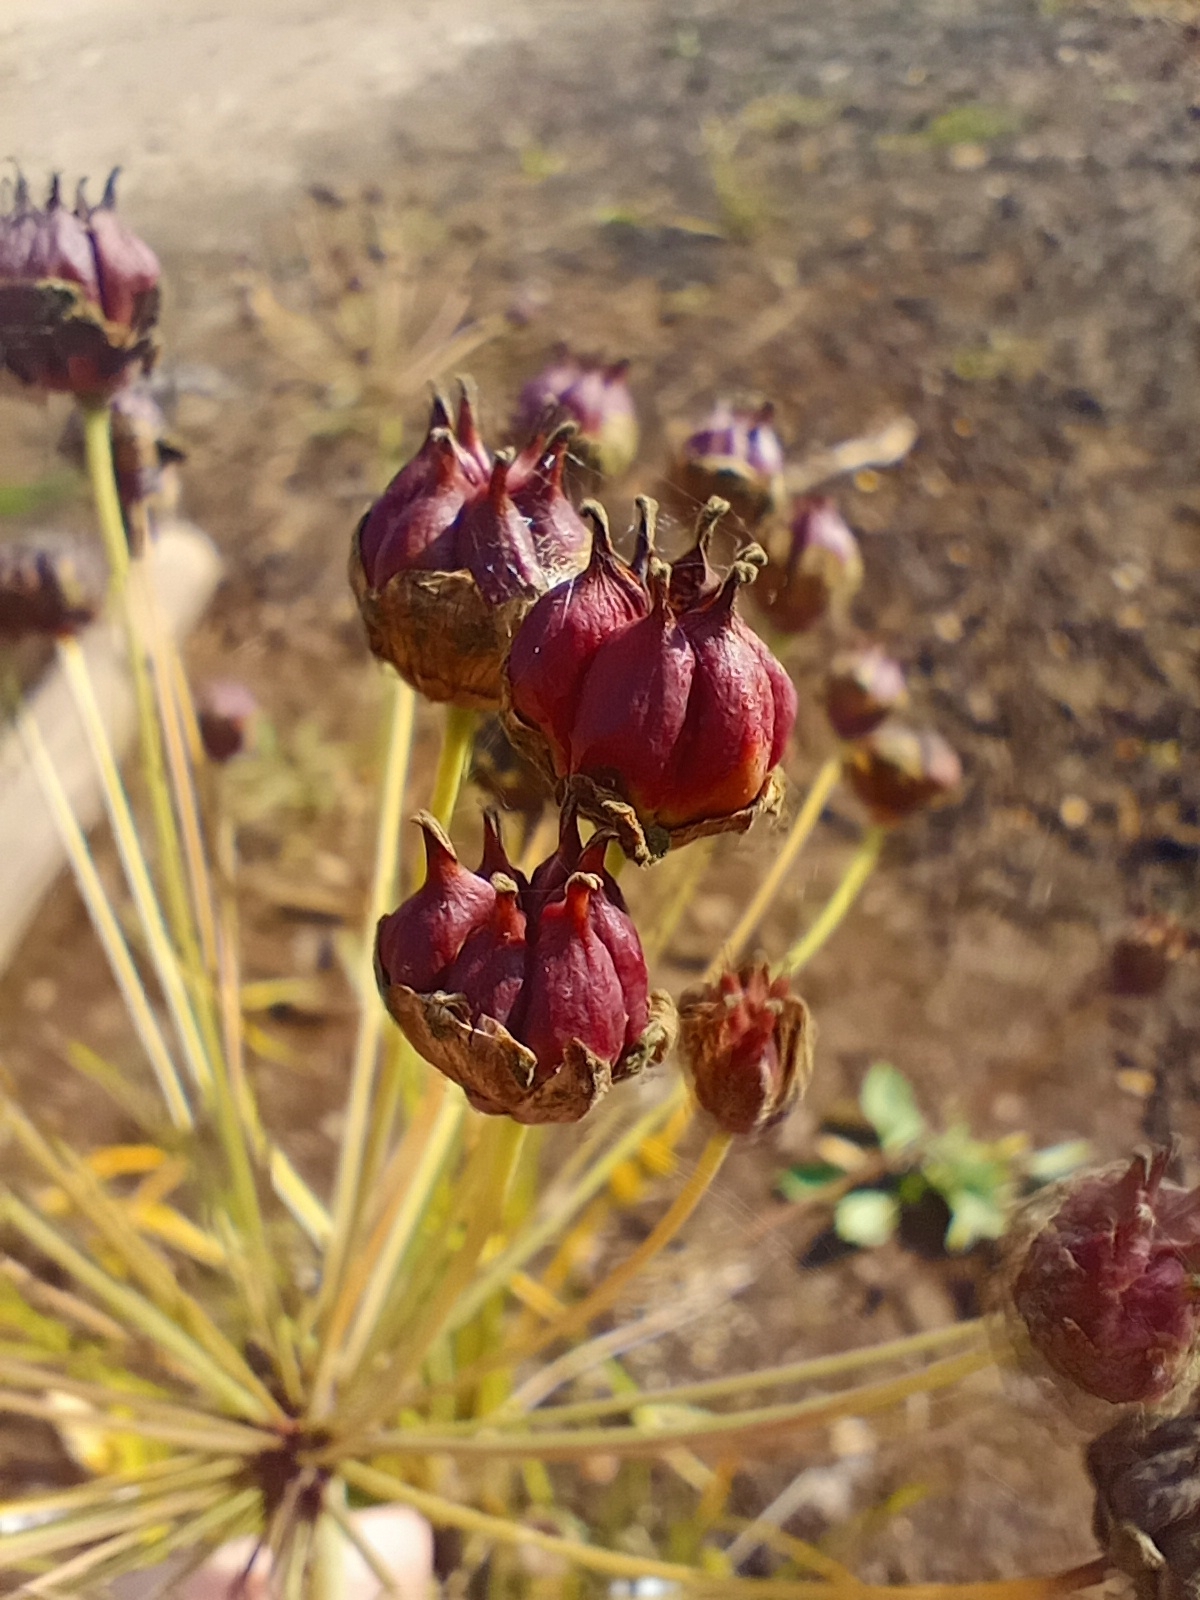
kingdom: Plantae
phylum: Tracheophyta
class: Liliopsida
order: Alismatales
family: Butomaceae
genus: Butomus
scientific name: Butomus umbellatus
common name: Flowering-rush
